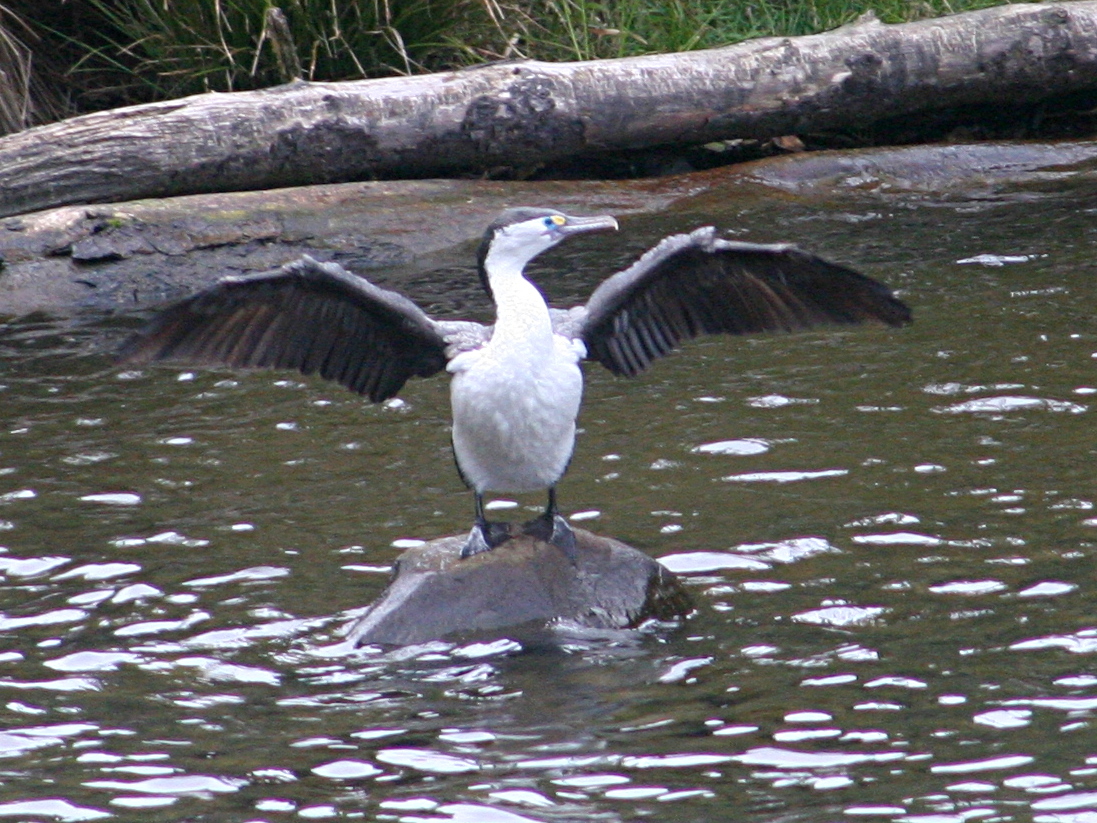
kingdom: Animalia
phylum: Chordata
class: Aves
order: Suliformes
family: Phalacrocoracidae
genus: Phalacrocorax
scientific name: Phalacrocorax varius
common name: Pied cormorant
